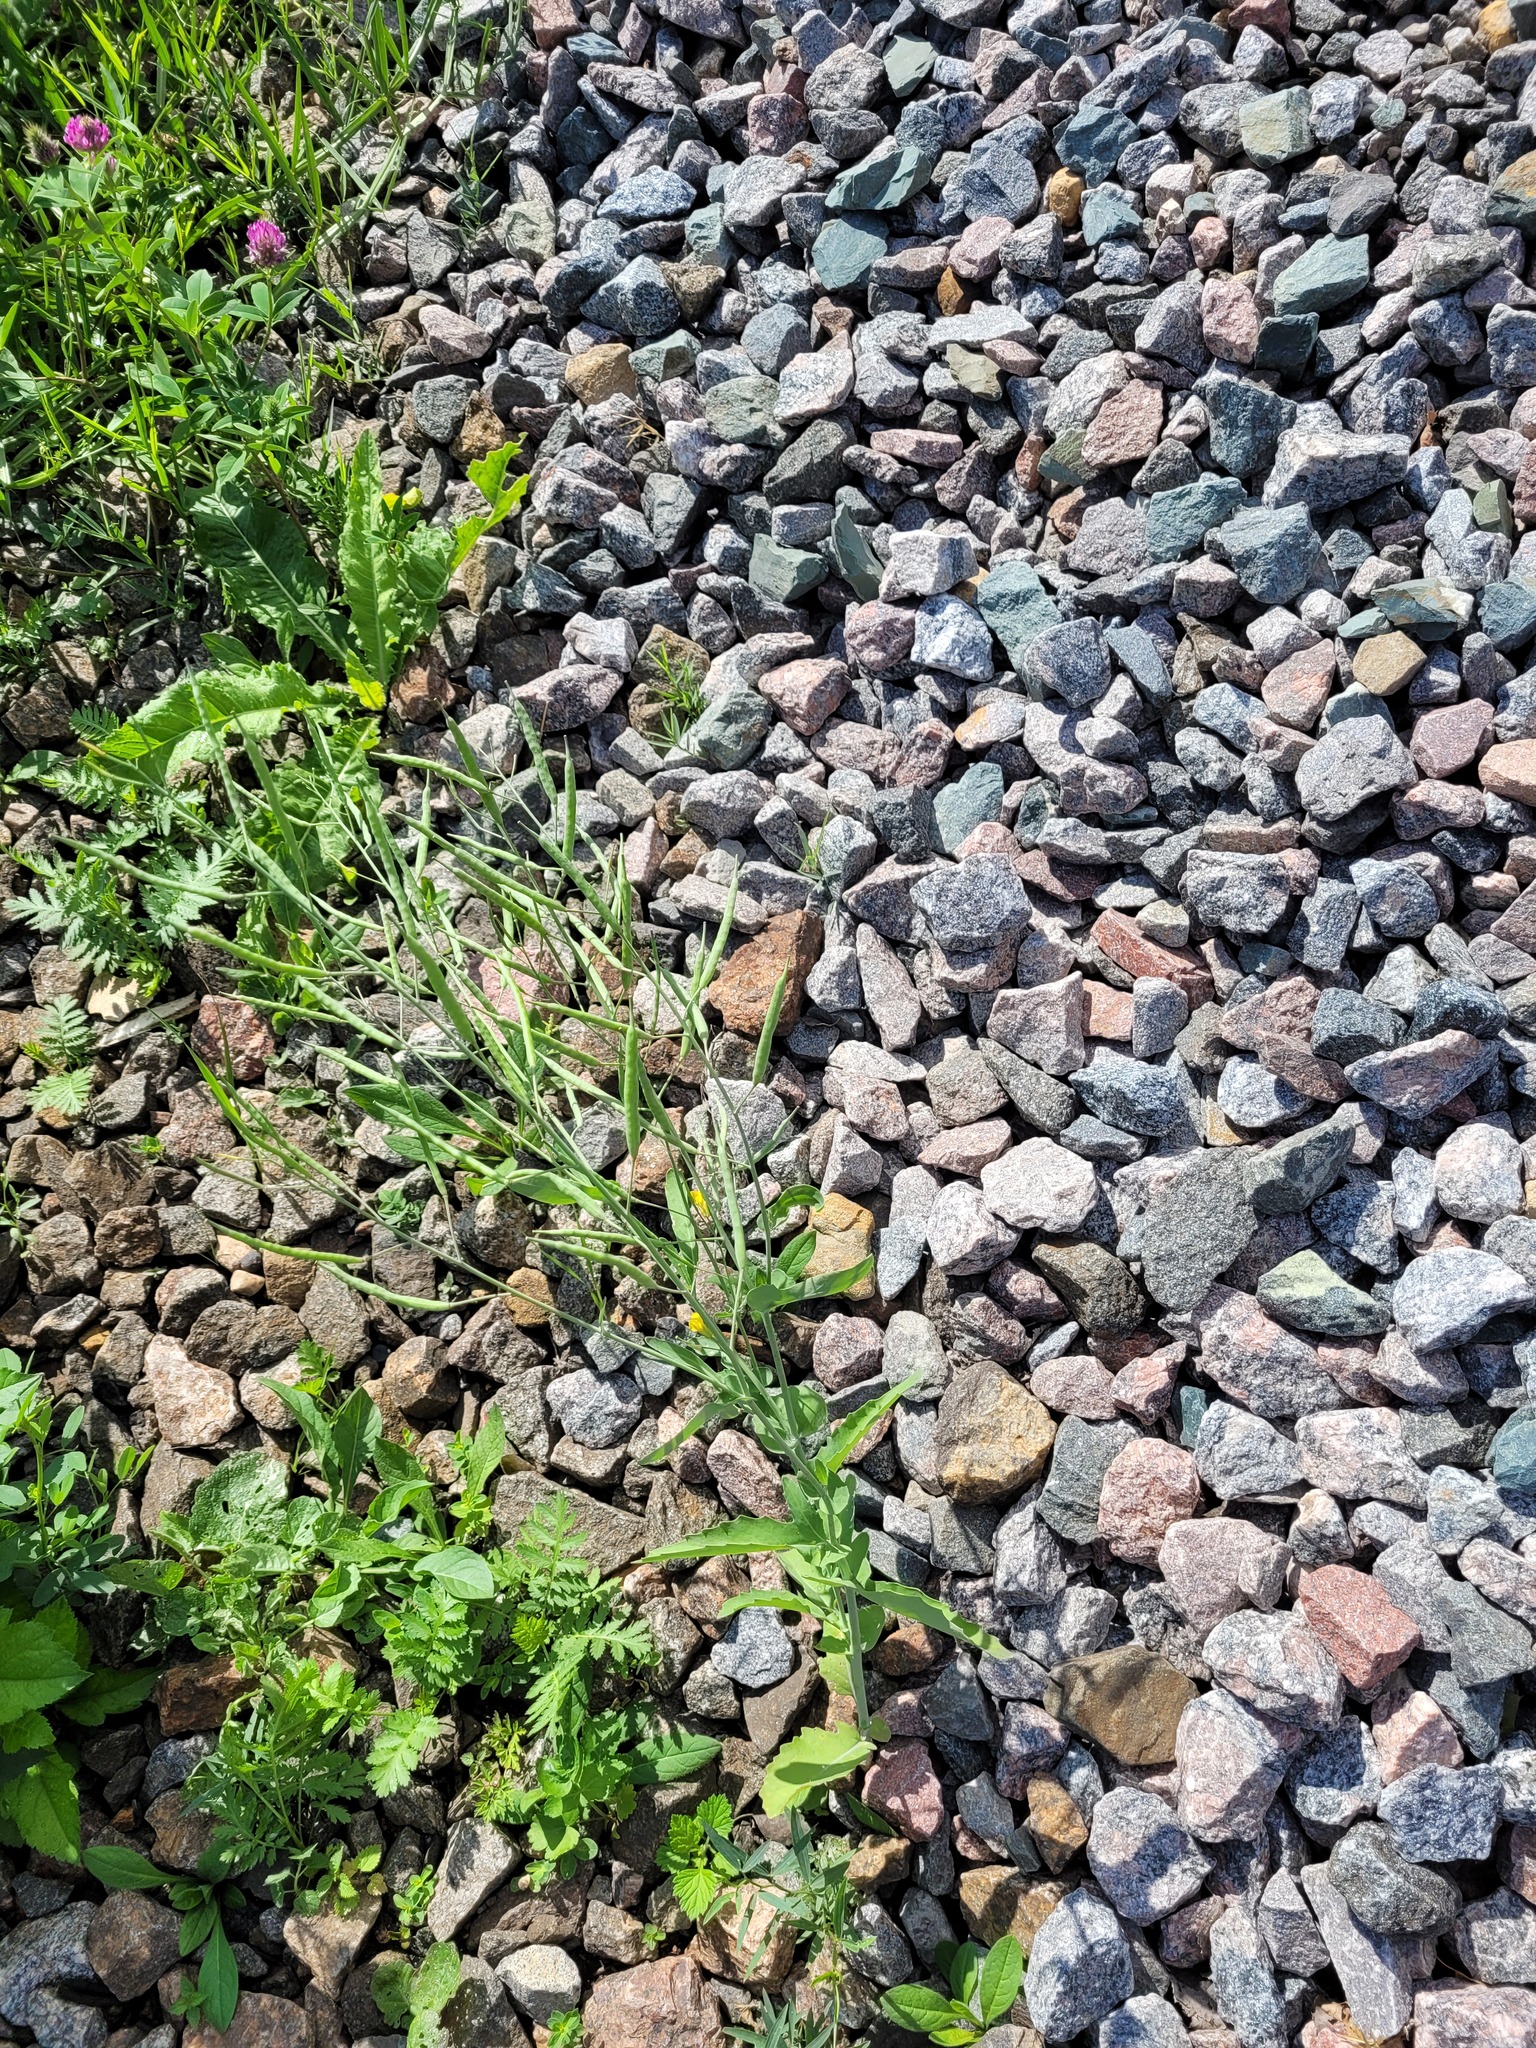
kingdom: Plantae
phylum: Tracheophyta
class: Magnoliopsida
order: Brassicales
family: Brassicaceae
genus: Brassica
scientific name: Brassica napus
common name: Rape
